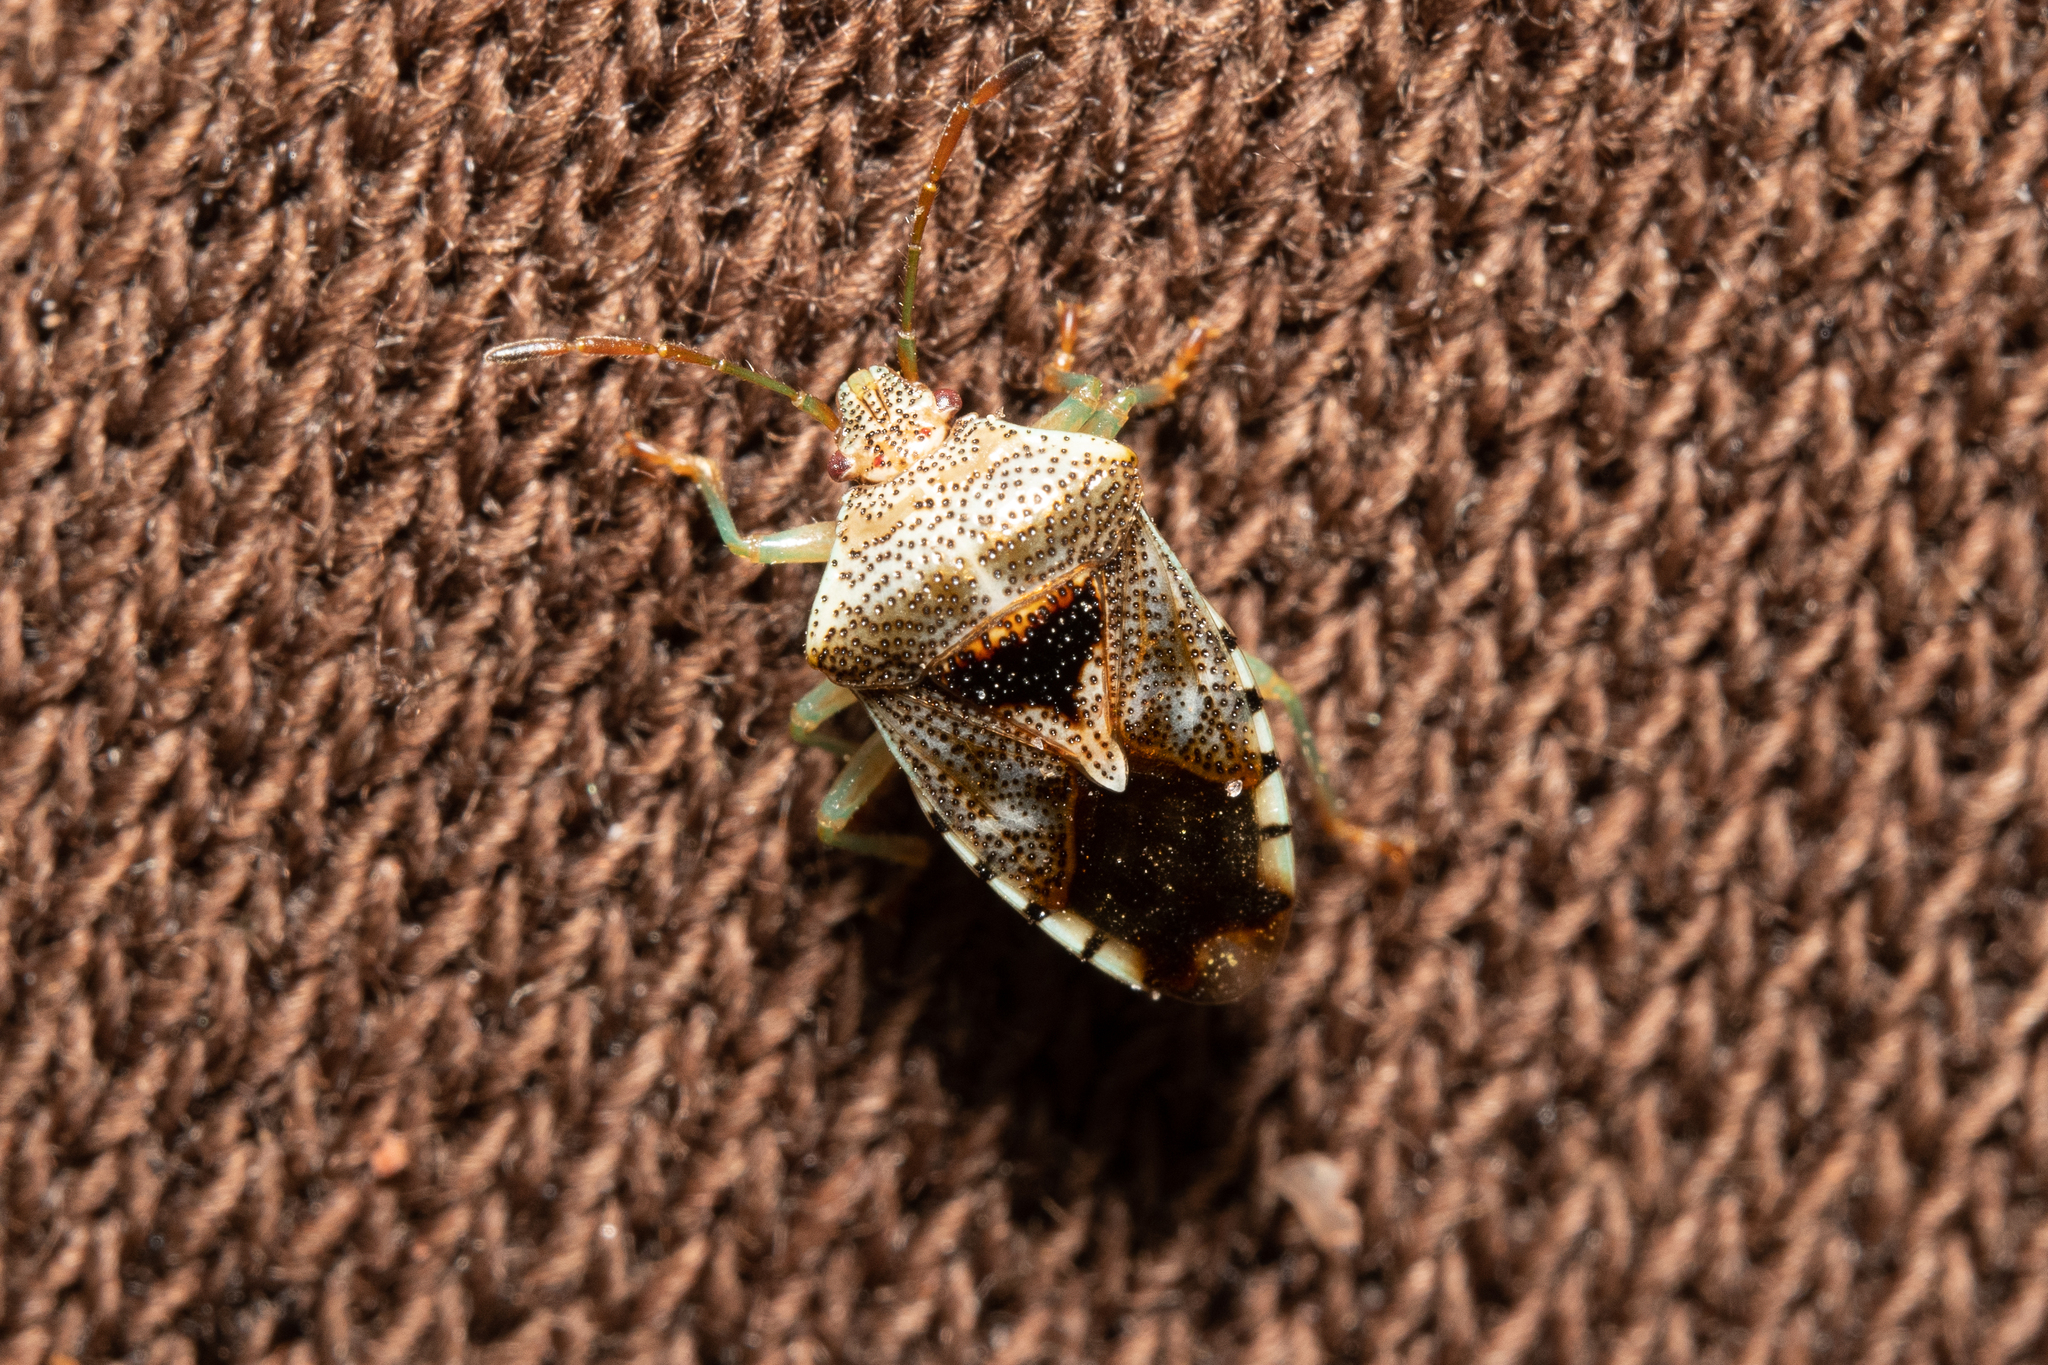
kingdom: Animalia
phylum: Arthropoda
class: Insecta
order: Hemiptera
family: Acanthosomatidae
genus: Elasmucha
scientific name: Elasmucha grisea
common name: Parent bug
